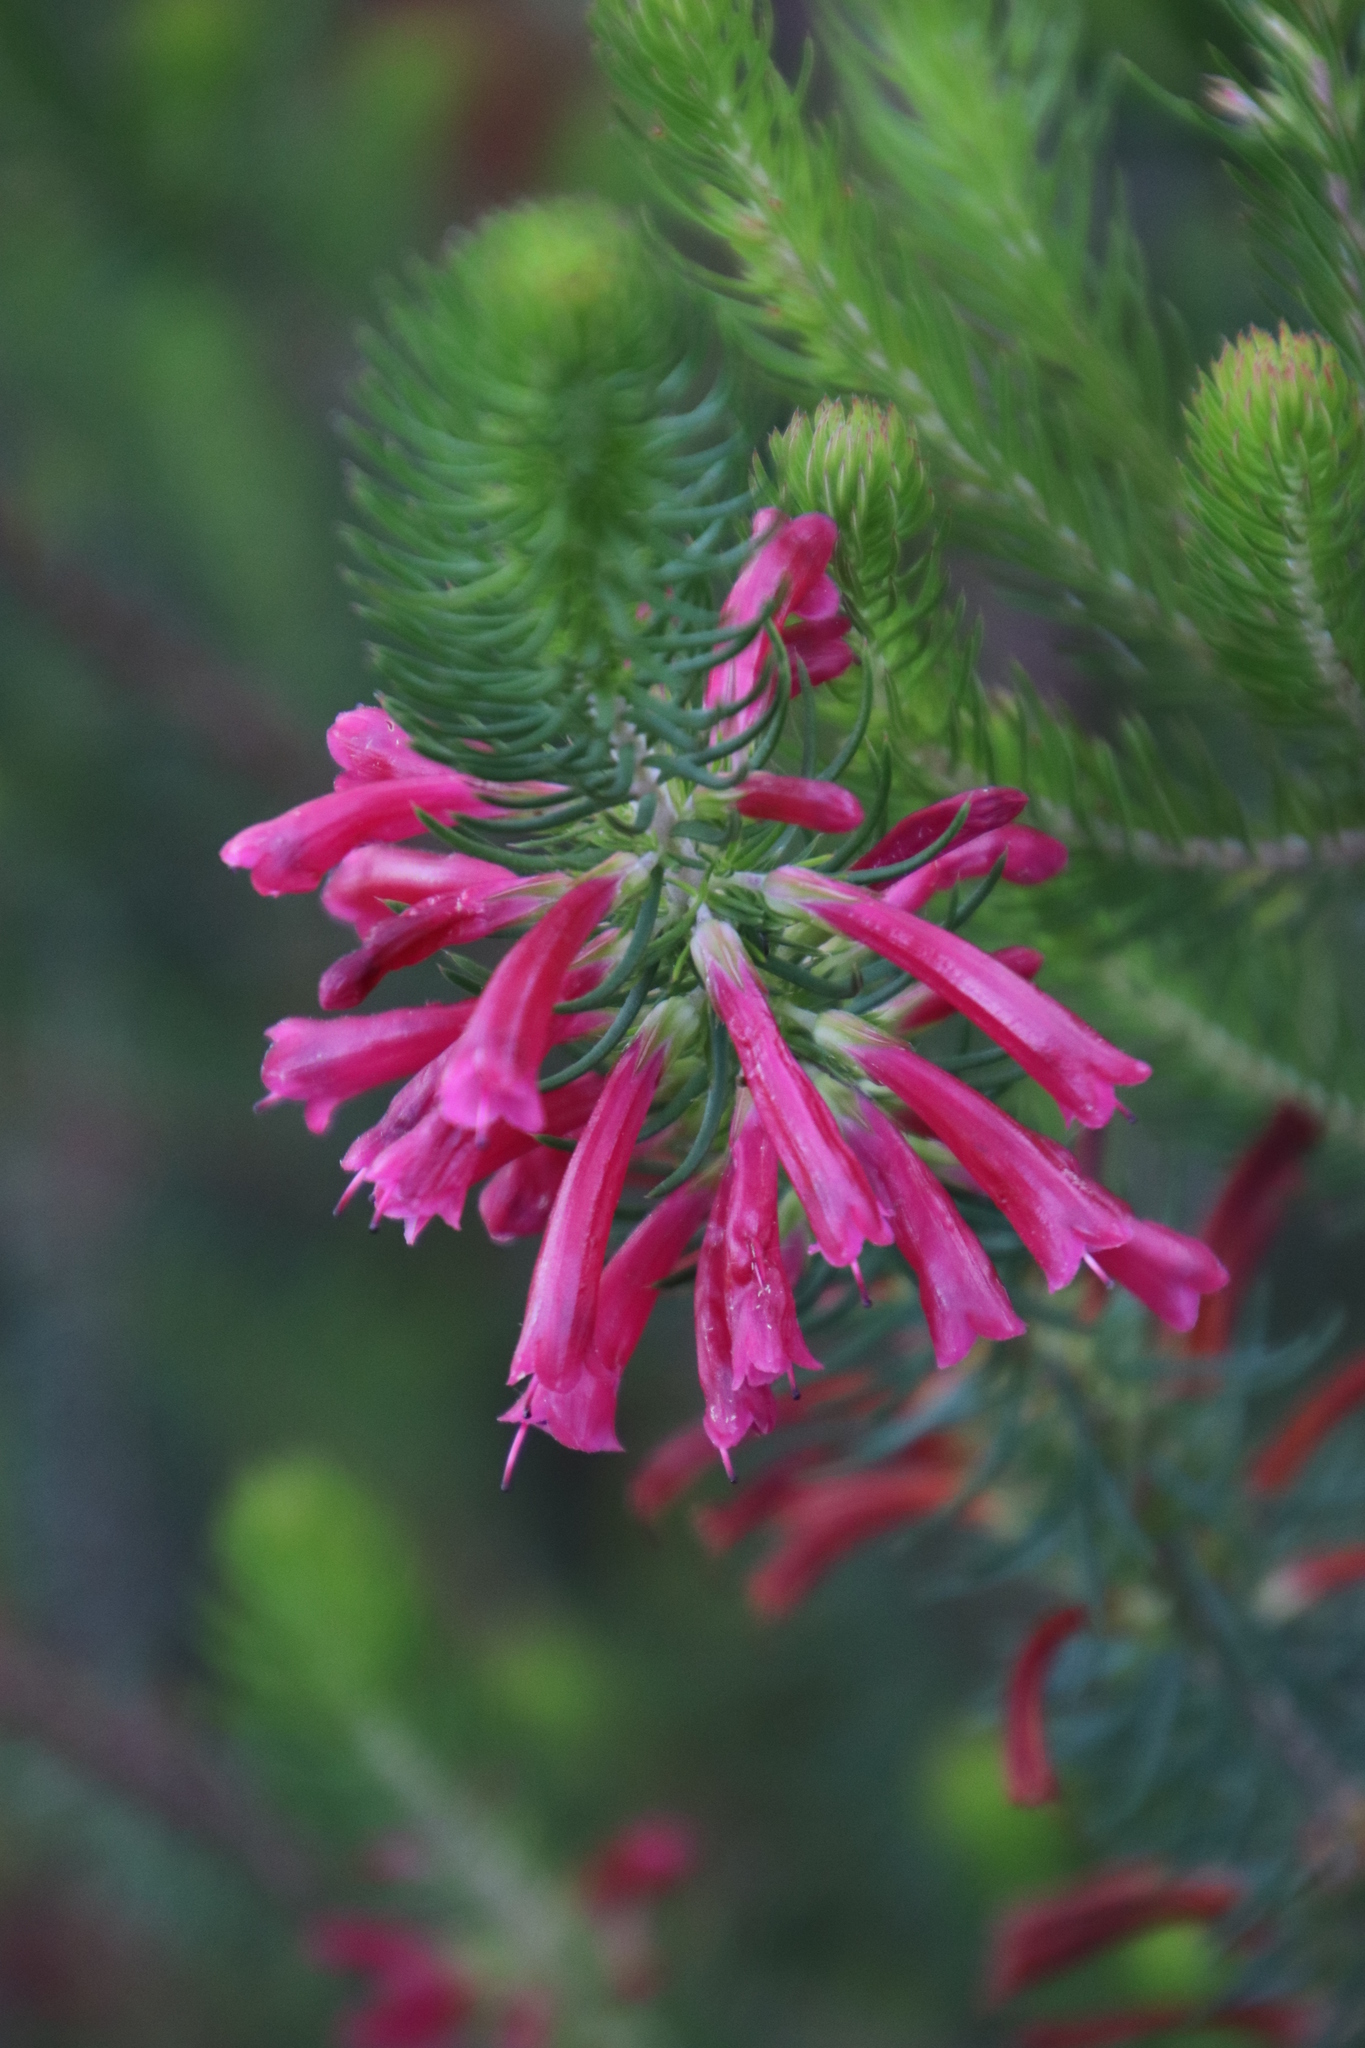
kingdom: Plantae
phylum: Tracheophyta
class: Magnoliopsida
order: Ericales
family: Ericaceae
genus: Erica
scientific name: Erica abietina
